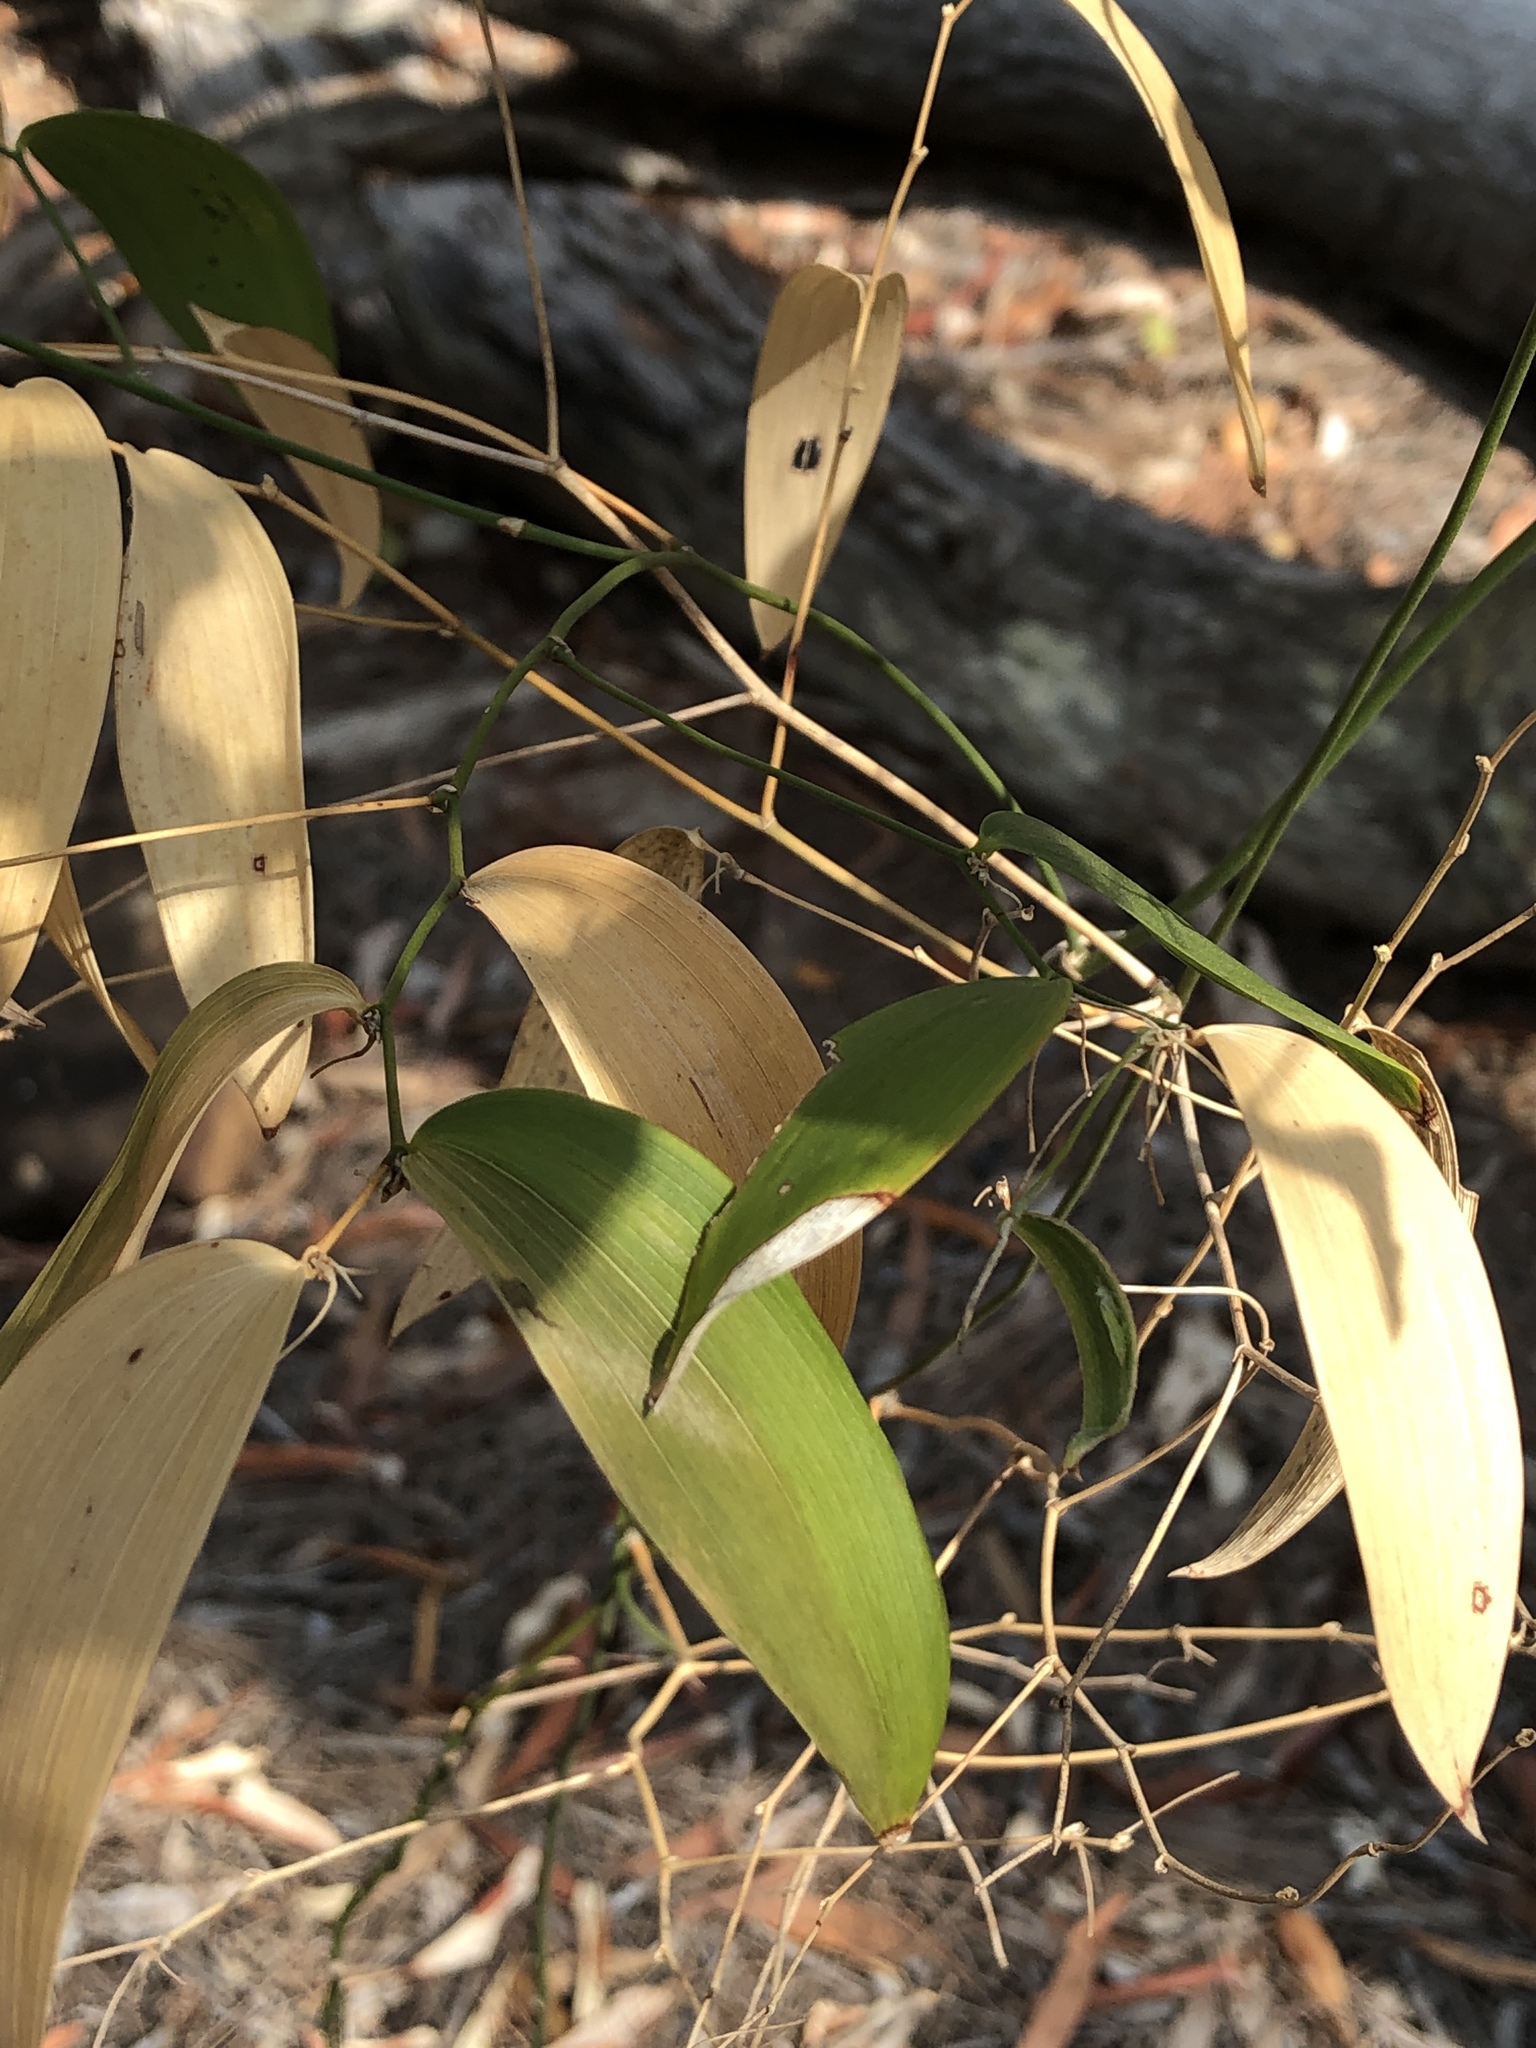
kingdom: Plantae
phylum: Tracheophyta
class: Liliopsida
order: Asparagales
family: Asparagaceae
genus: Eustrephus
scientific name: Eustrephus latifolius
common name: Orangevine
